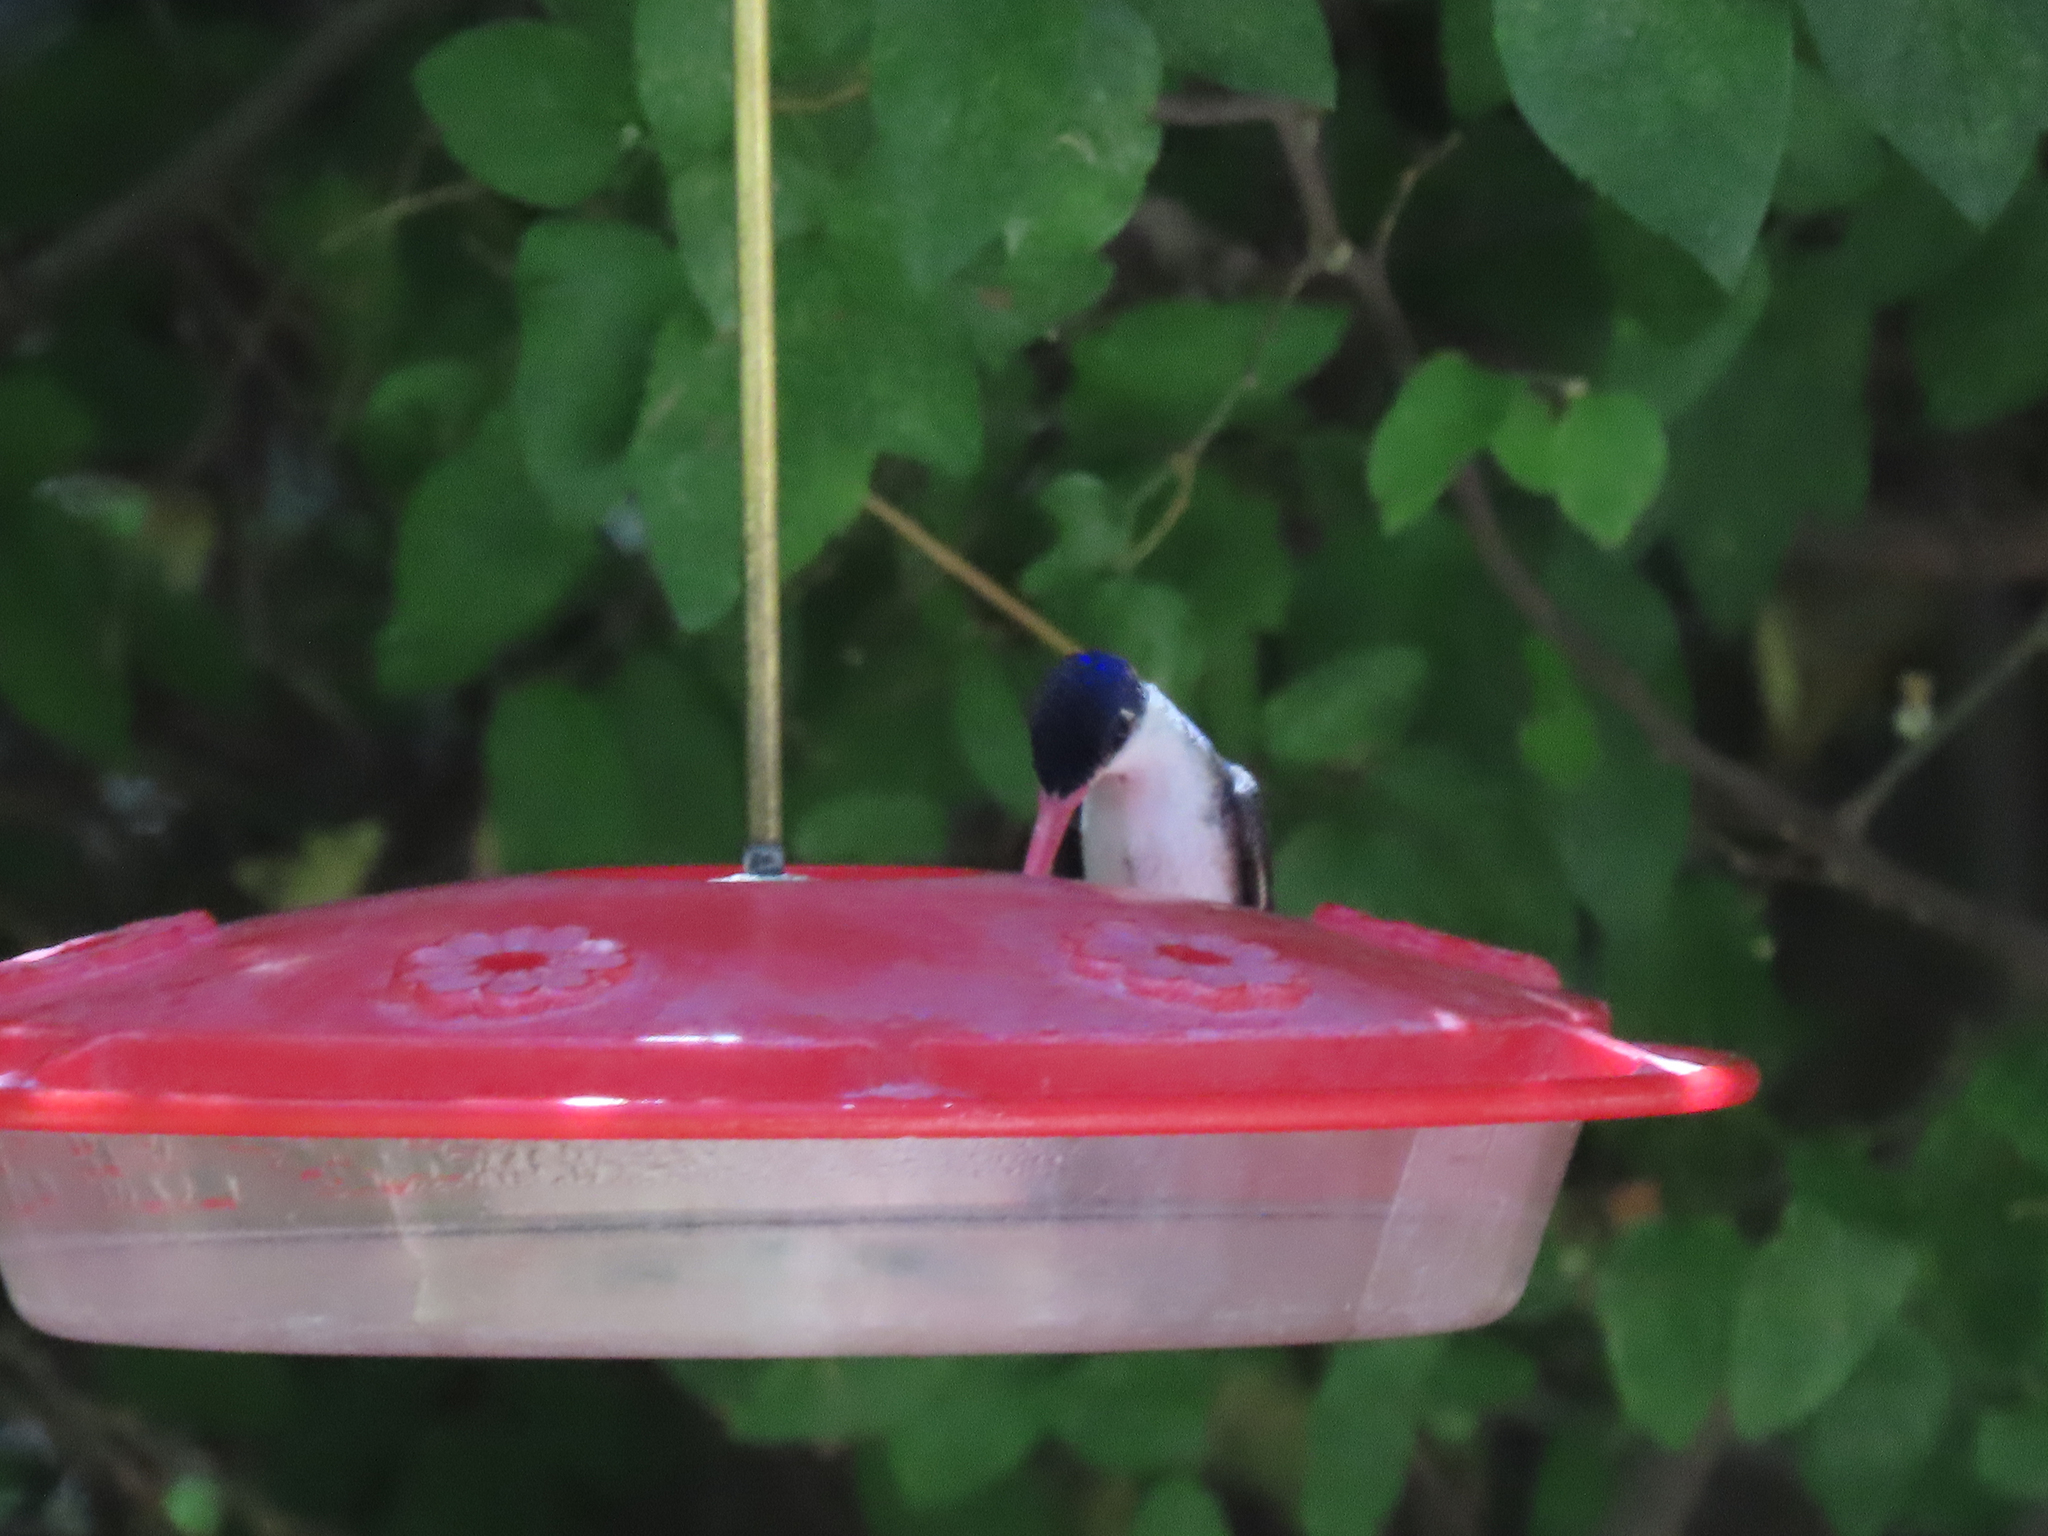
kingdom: Animalia
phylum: Chordata
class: Aves
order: Apodiformes
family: Trochilidae
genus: Leucolia
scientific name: Leucolia violiceps
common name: Violet-crowned hummingbird
